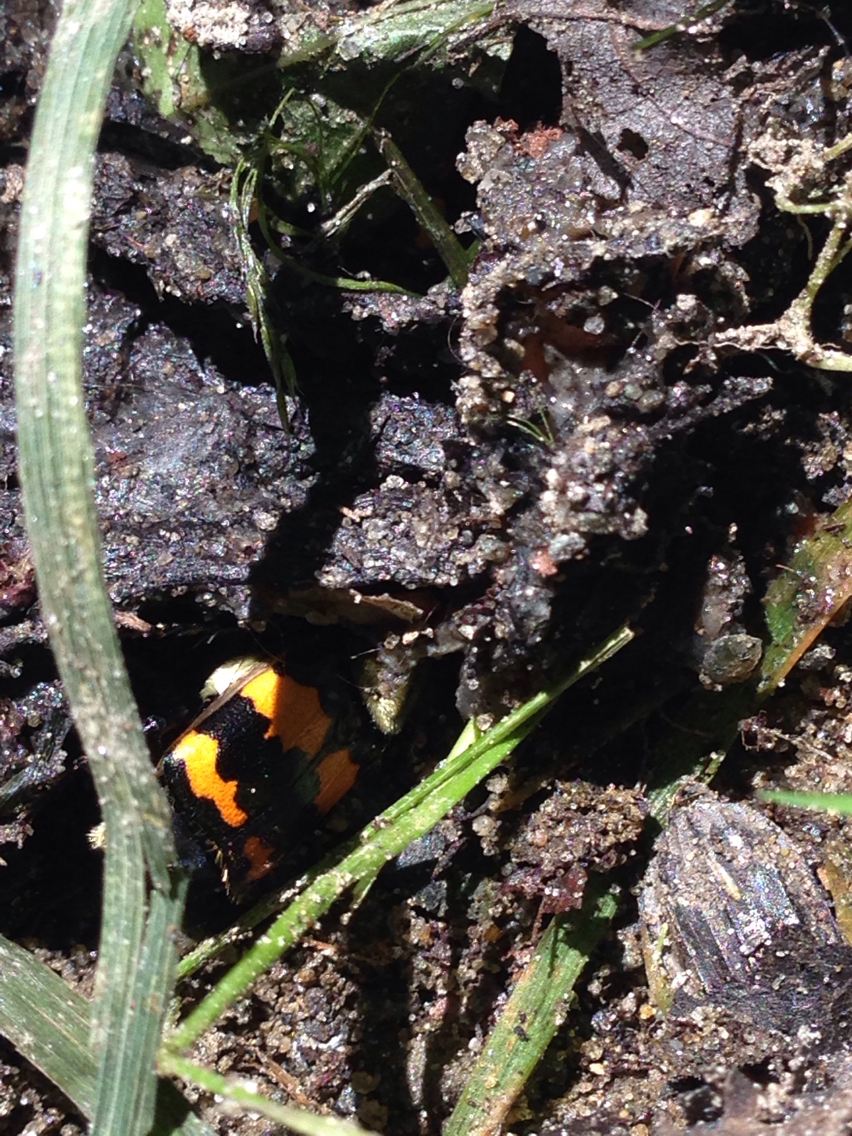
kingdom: Animalia
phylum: Arthropoda
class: Insecta
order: Coleoptera
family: Staphylinidae
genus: Nicrophorus
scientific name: Nicrophorus tomentosus
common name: Tomentose burying beetle
